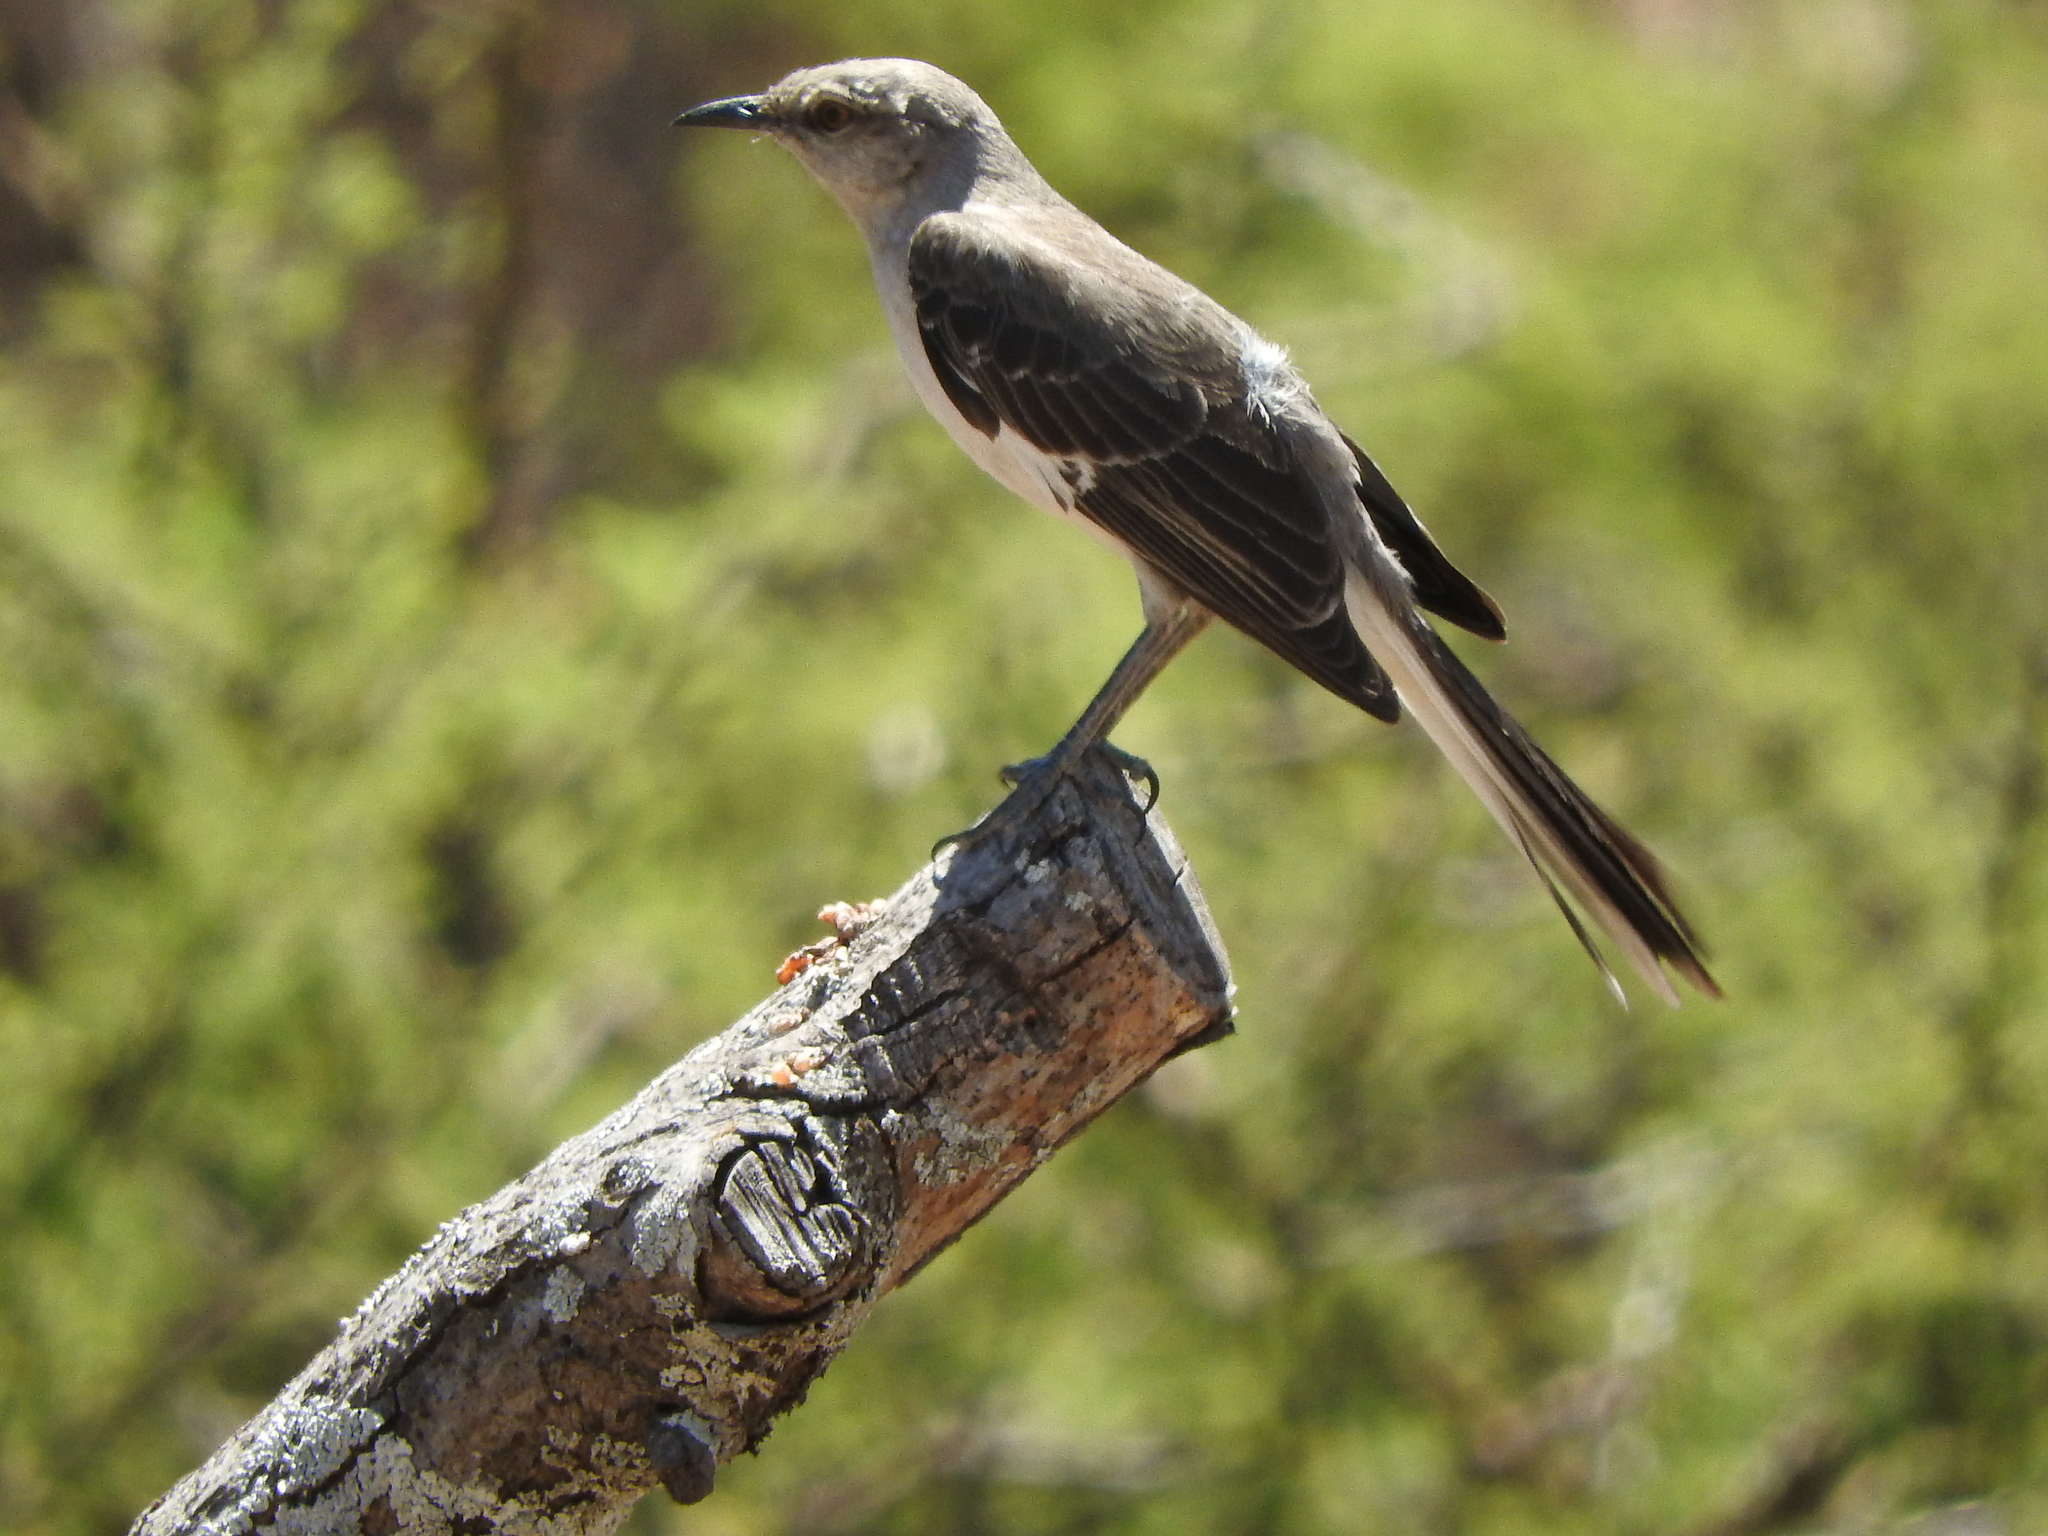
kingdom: Animalia
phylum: Chordata
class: Aves
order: Passeriformes
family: Mimidae
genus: Mimus
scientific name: Mimus polyglottos
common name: Northern mockingbird
